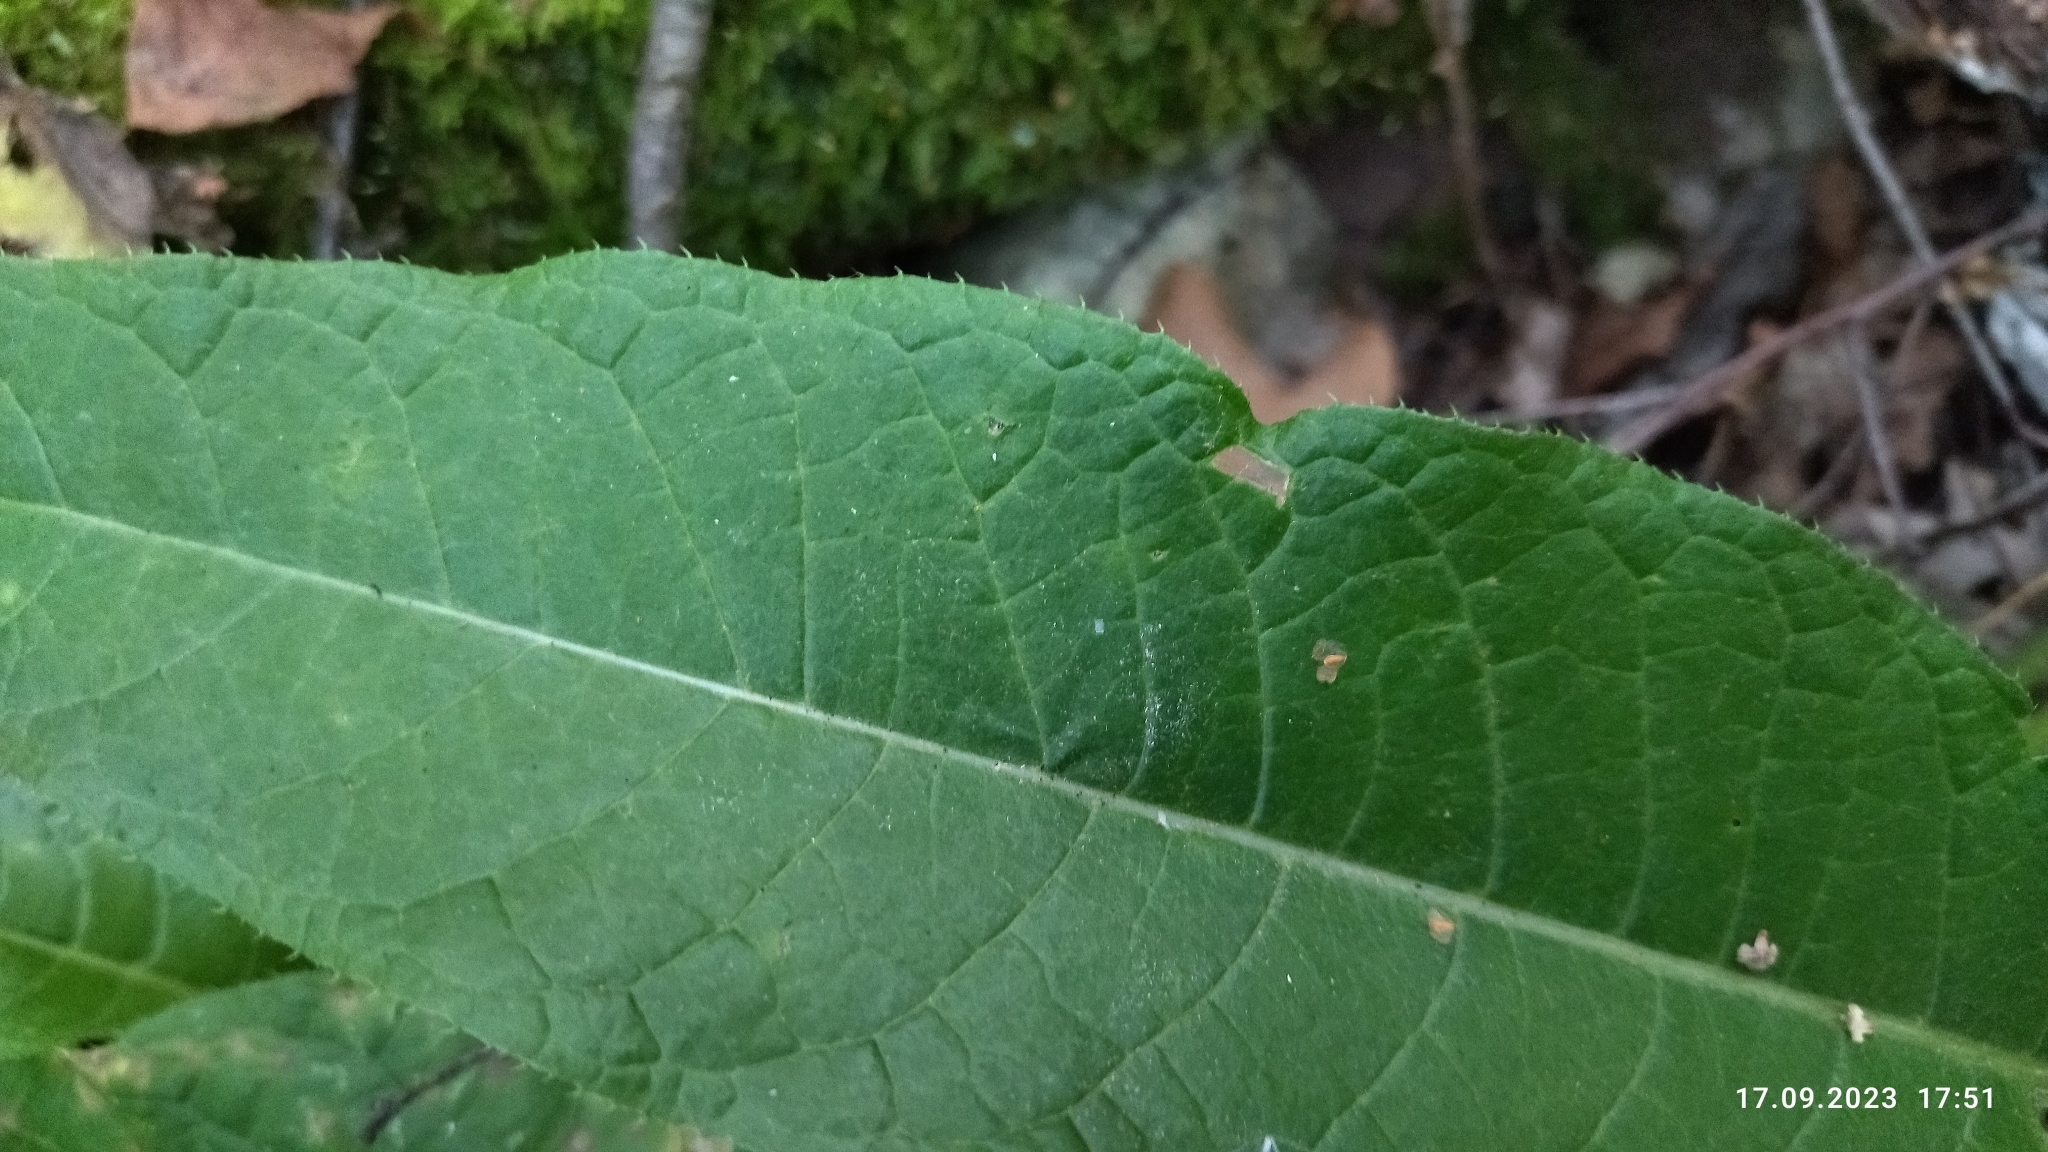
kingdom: Plantae
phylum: Tracheophyta
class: Magnoliopsida
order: Asterales
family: Asteraceae
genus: Cirsium
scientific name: Cirsium heterophyllum
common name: Melancholy thistle
